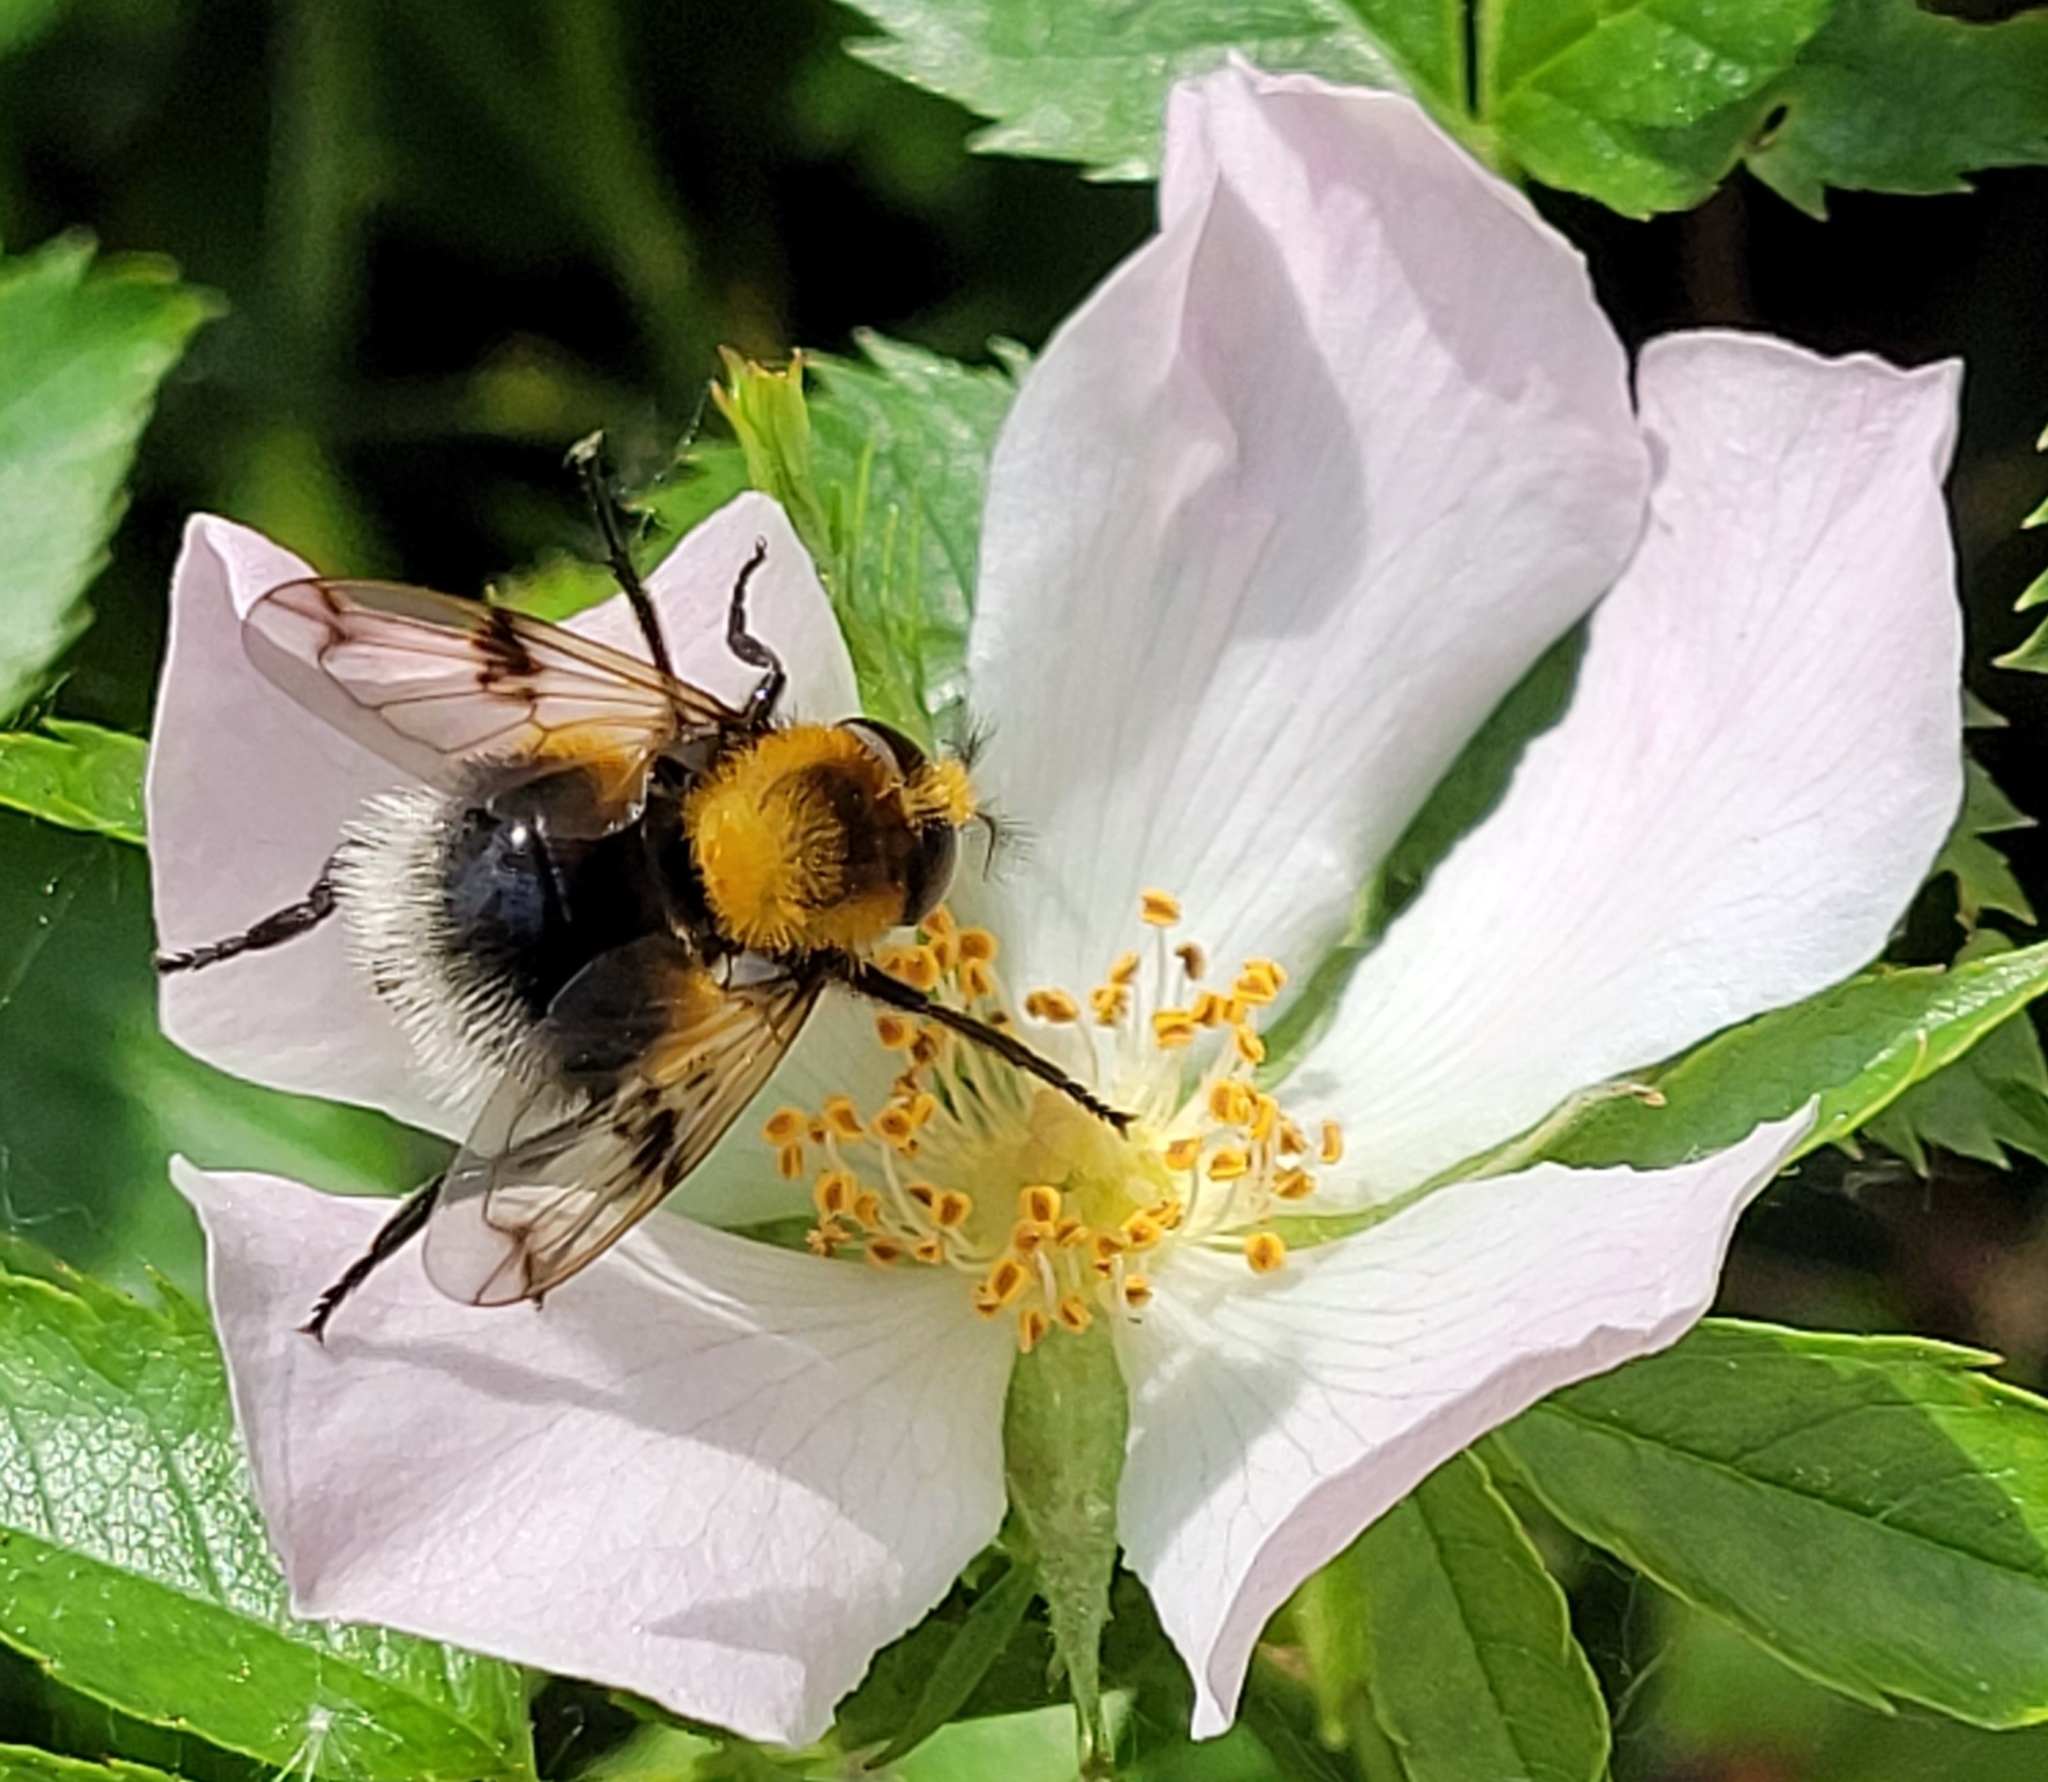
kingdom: Animalia
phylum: Arthropoda
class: Insecta
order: Diptera
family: Syrphidae
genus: Volucella
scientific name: Volucella bombylans
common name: Bumble bee hover fly
